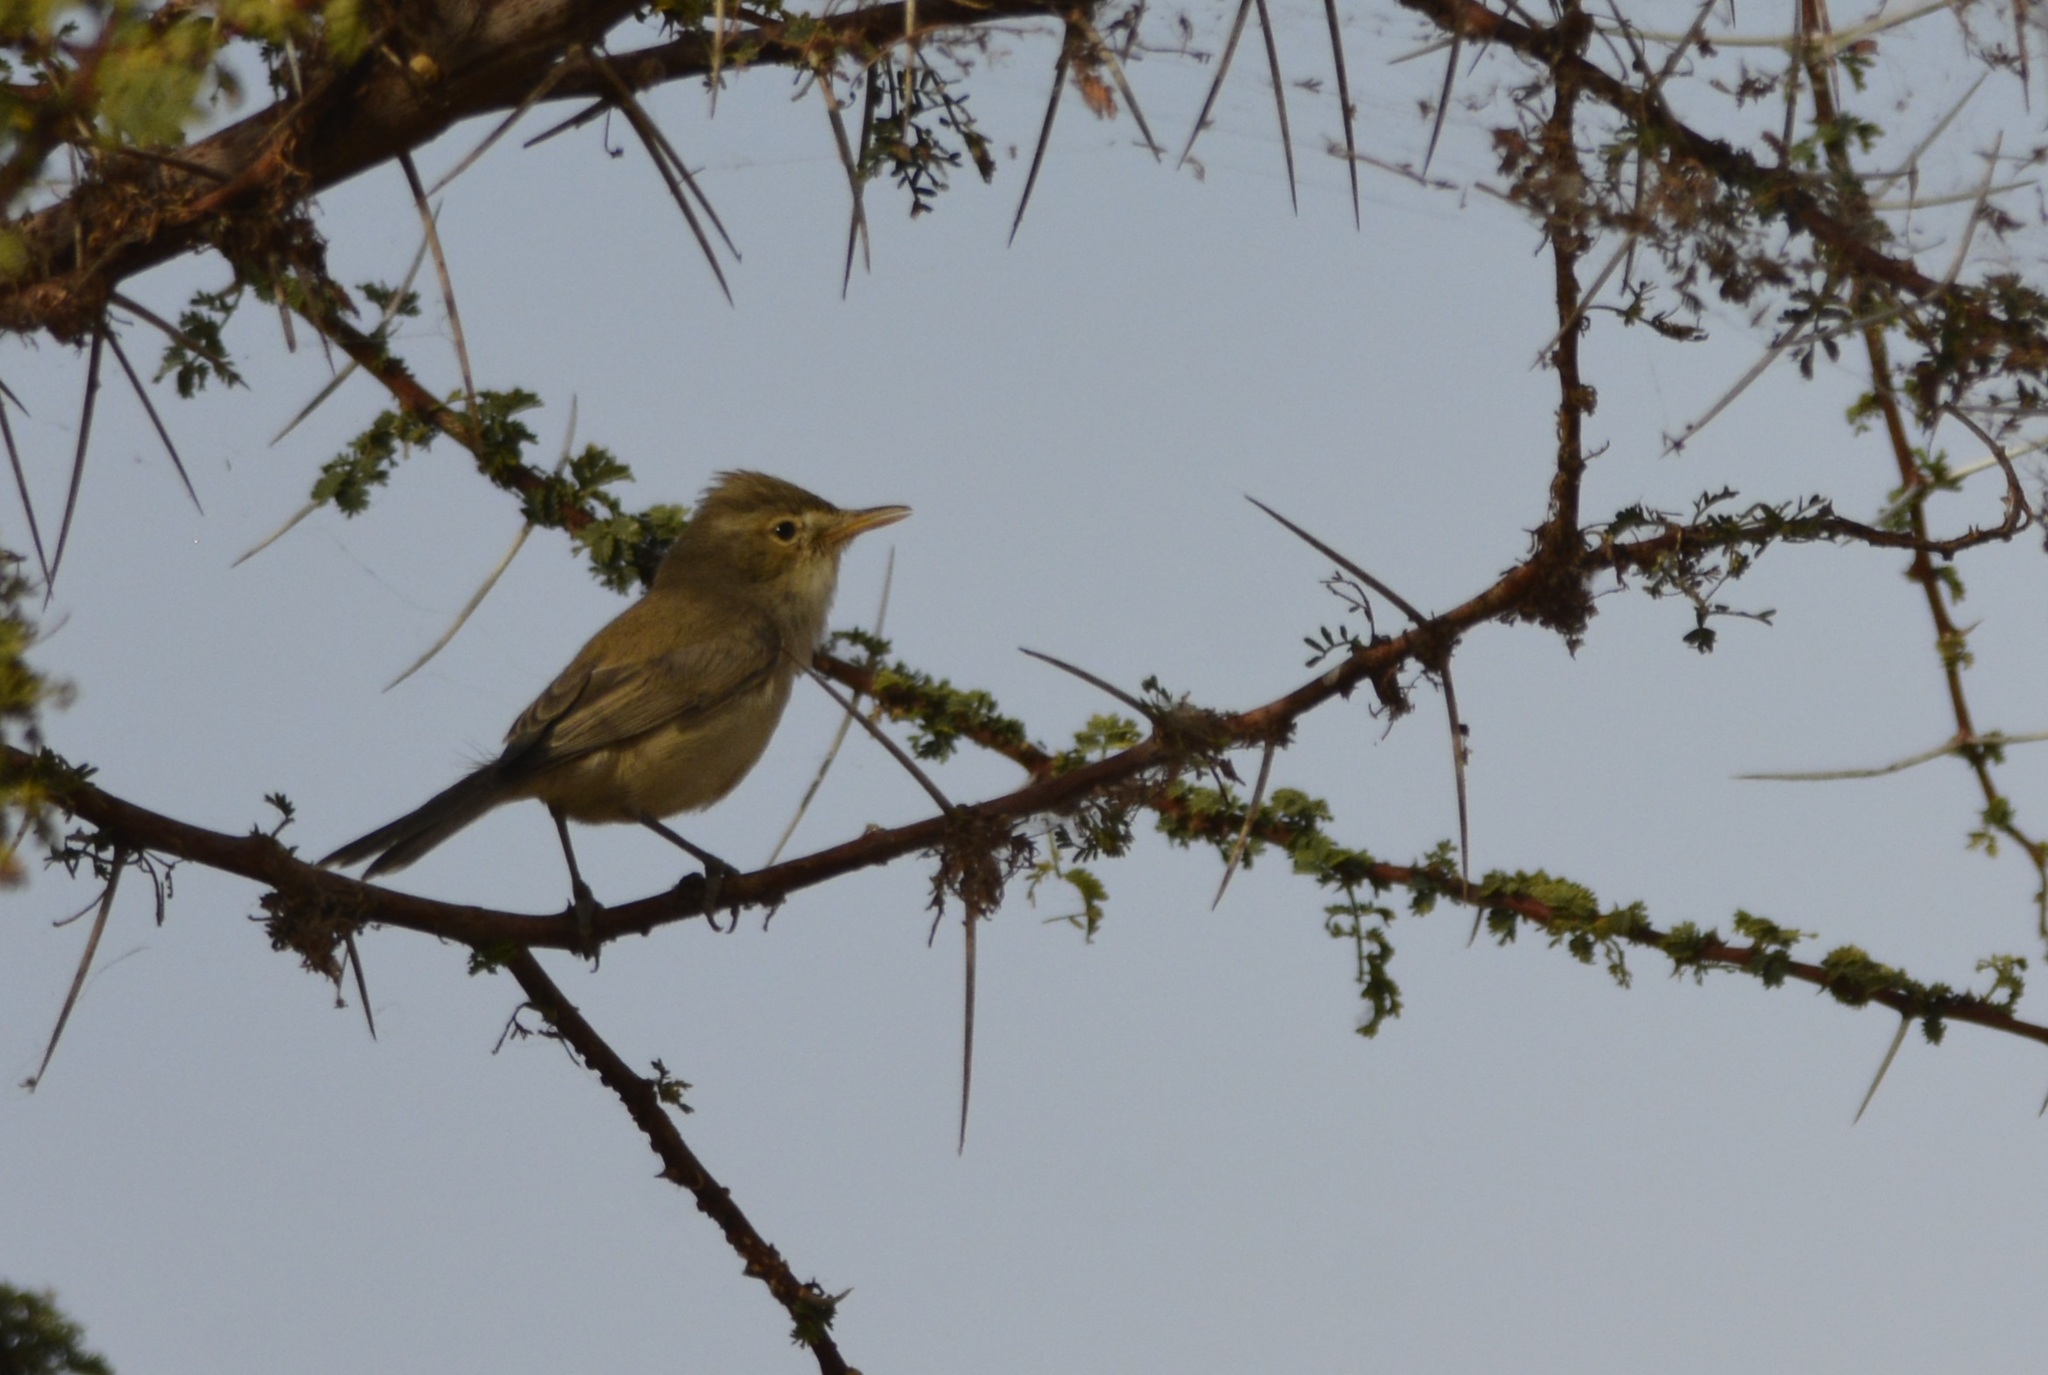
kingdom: Animalia
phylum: Chordata
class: Aves
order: Passeriformes
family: Acrocephalidae
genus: Iduna
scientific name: Iduna pallida
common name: Eastern olivaceous warbler
